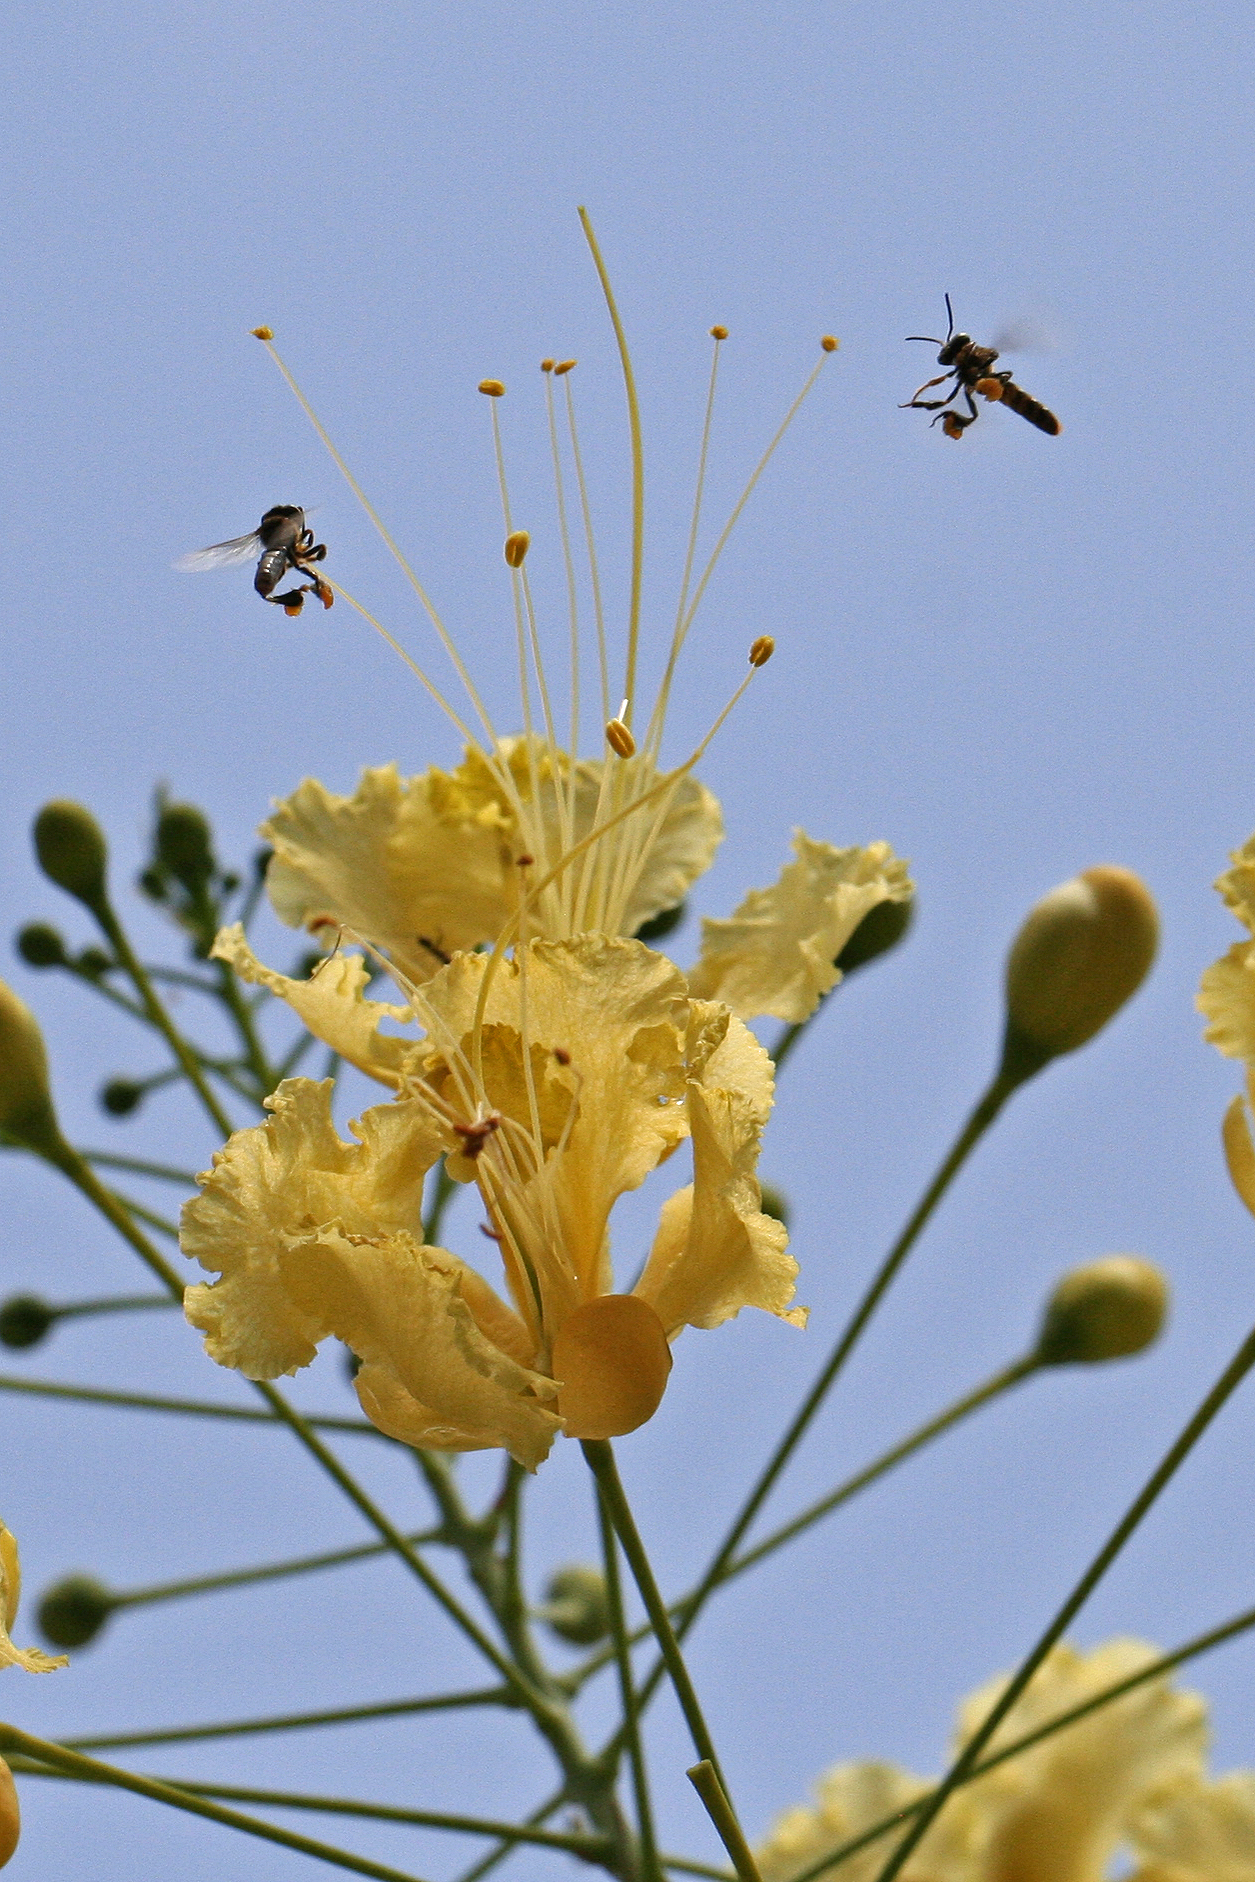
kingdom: Plantae
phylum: Tracheophyta
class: Magnoliopsida
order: Fabales
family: Fabaceae
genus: Caesalpinia
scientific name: Caesalpinia pulcherrima
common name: Pride-of-barbados
